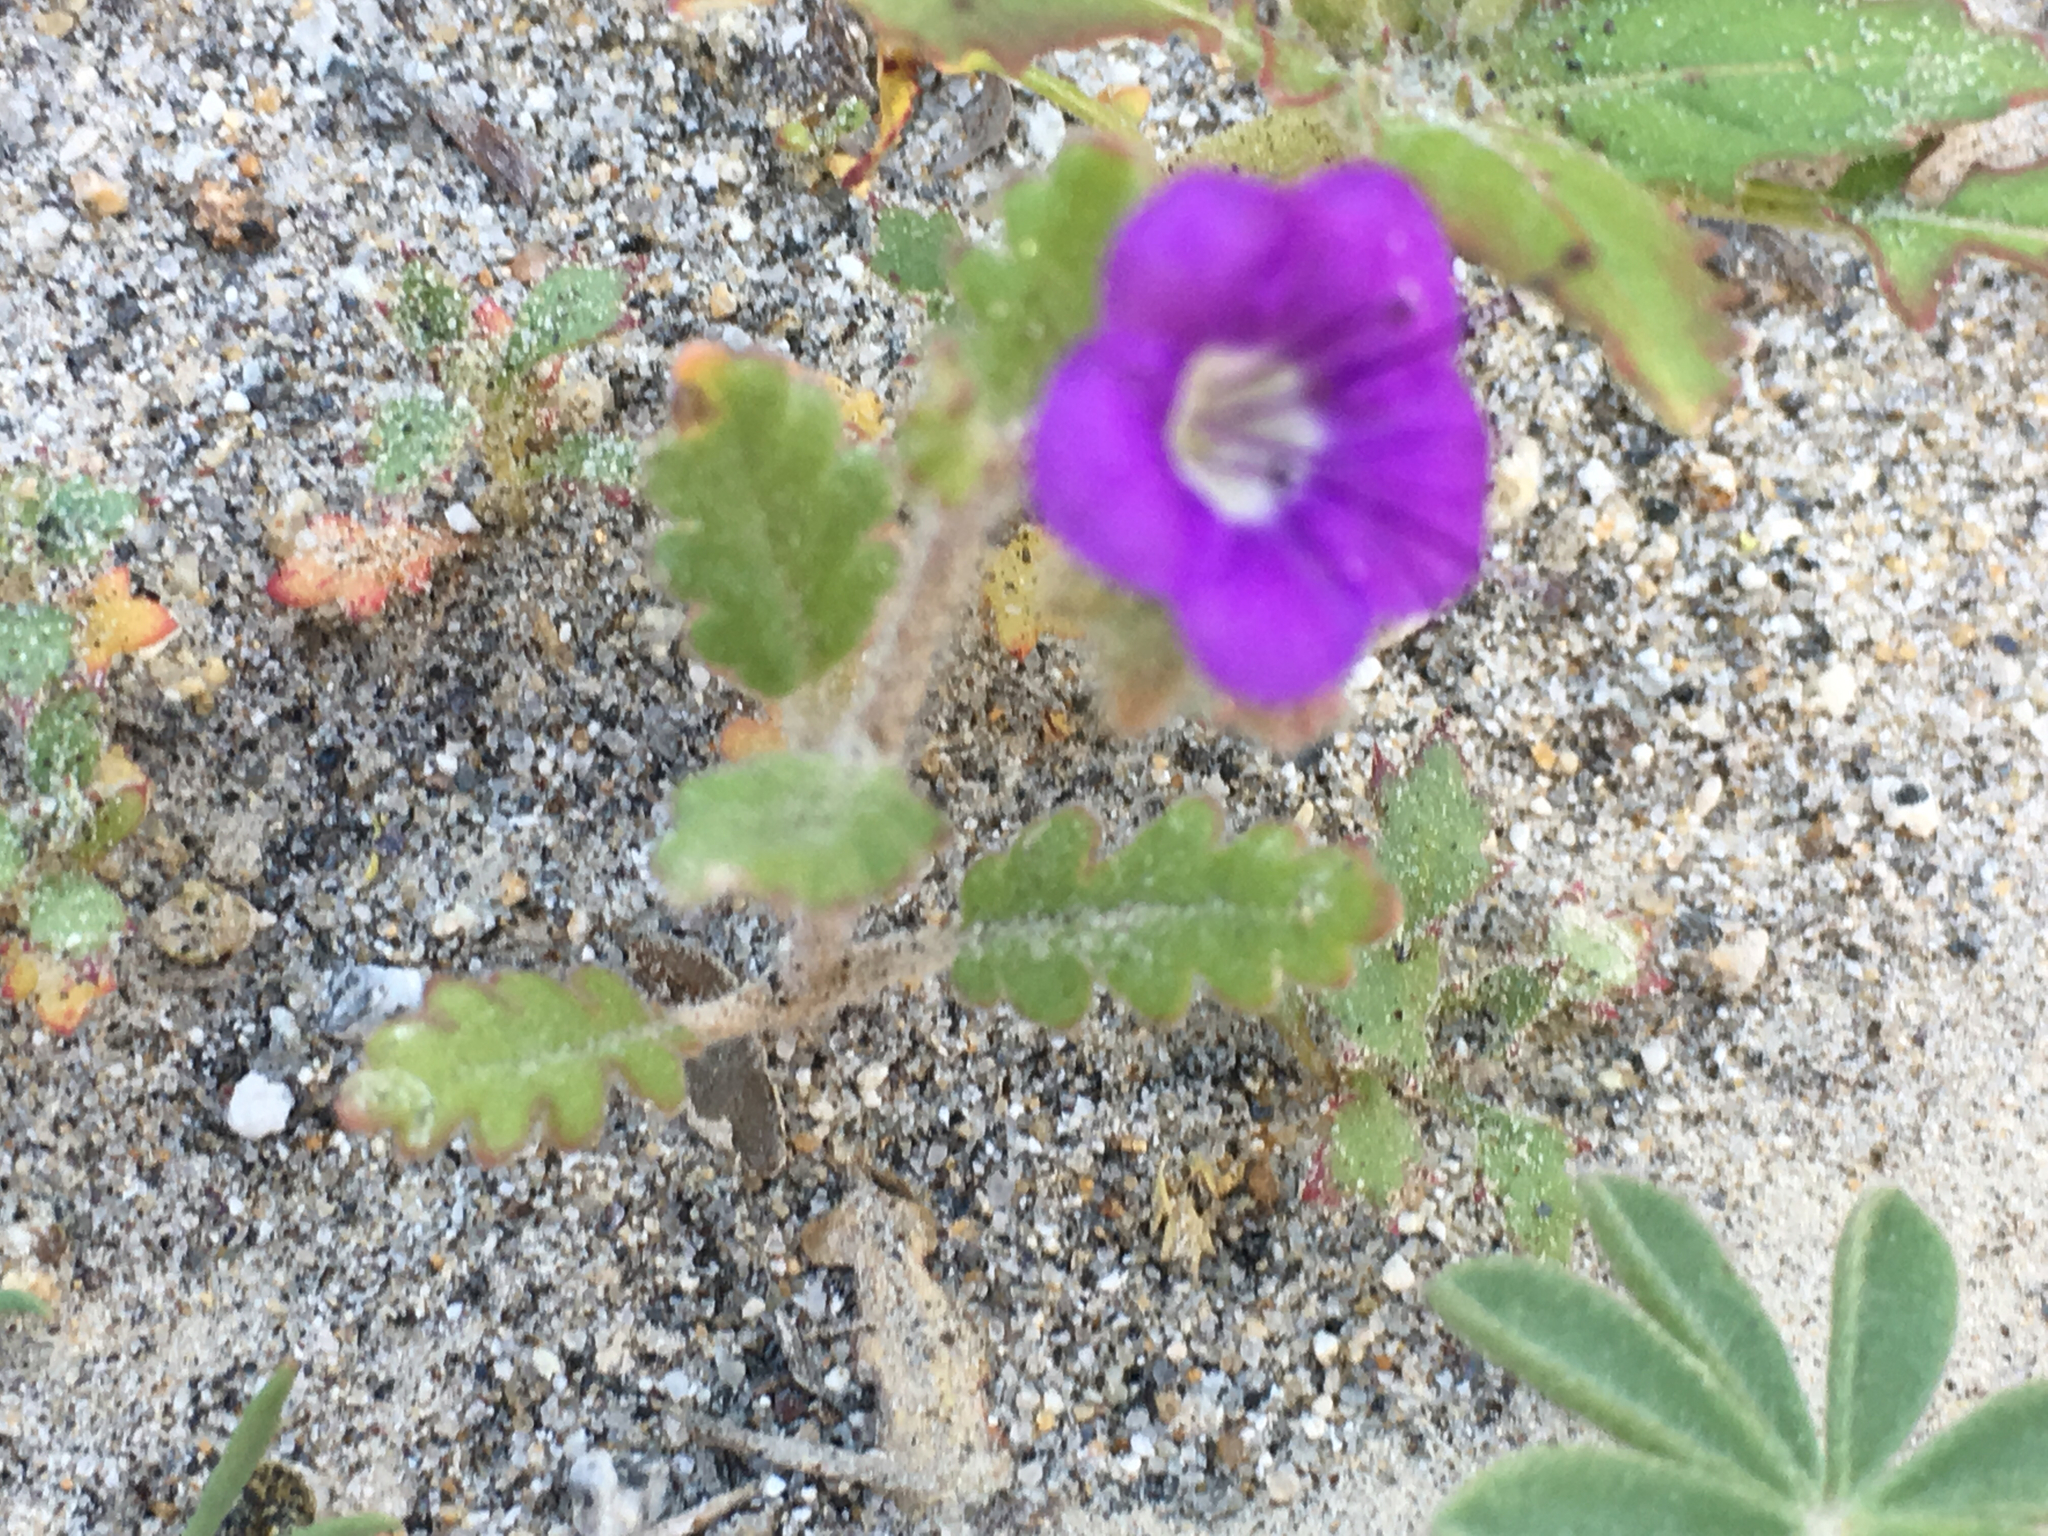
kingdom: Plantae
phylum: Tracheophyta
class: Magnoliopsida
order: Boraginales
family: Hydrophyllaceae
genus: Phacelia
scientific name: Phacelia crenulata
